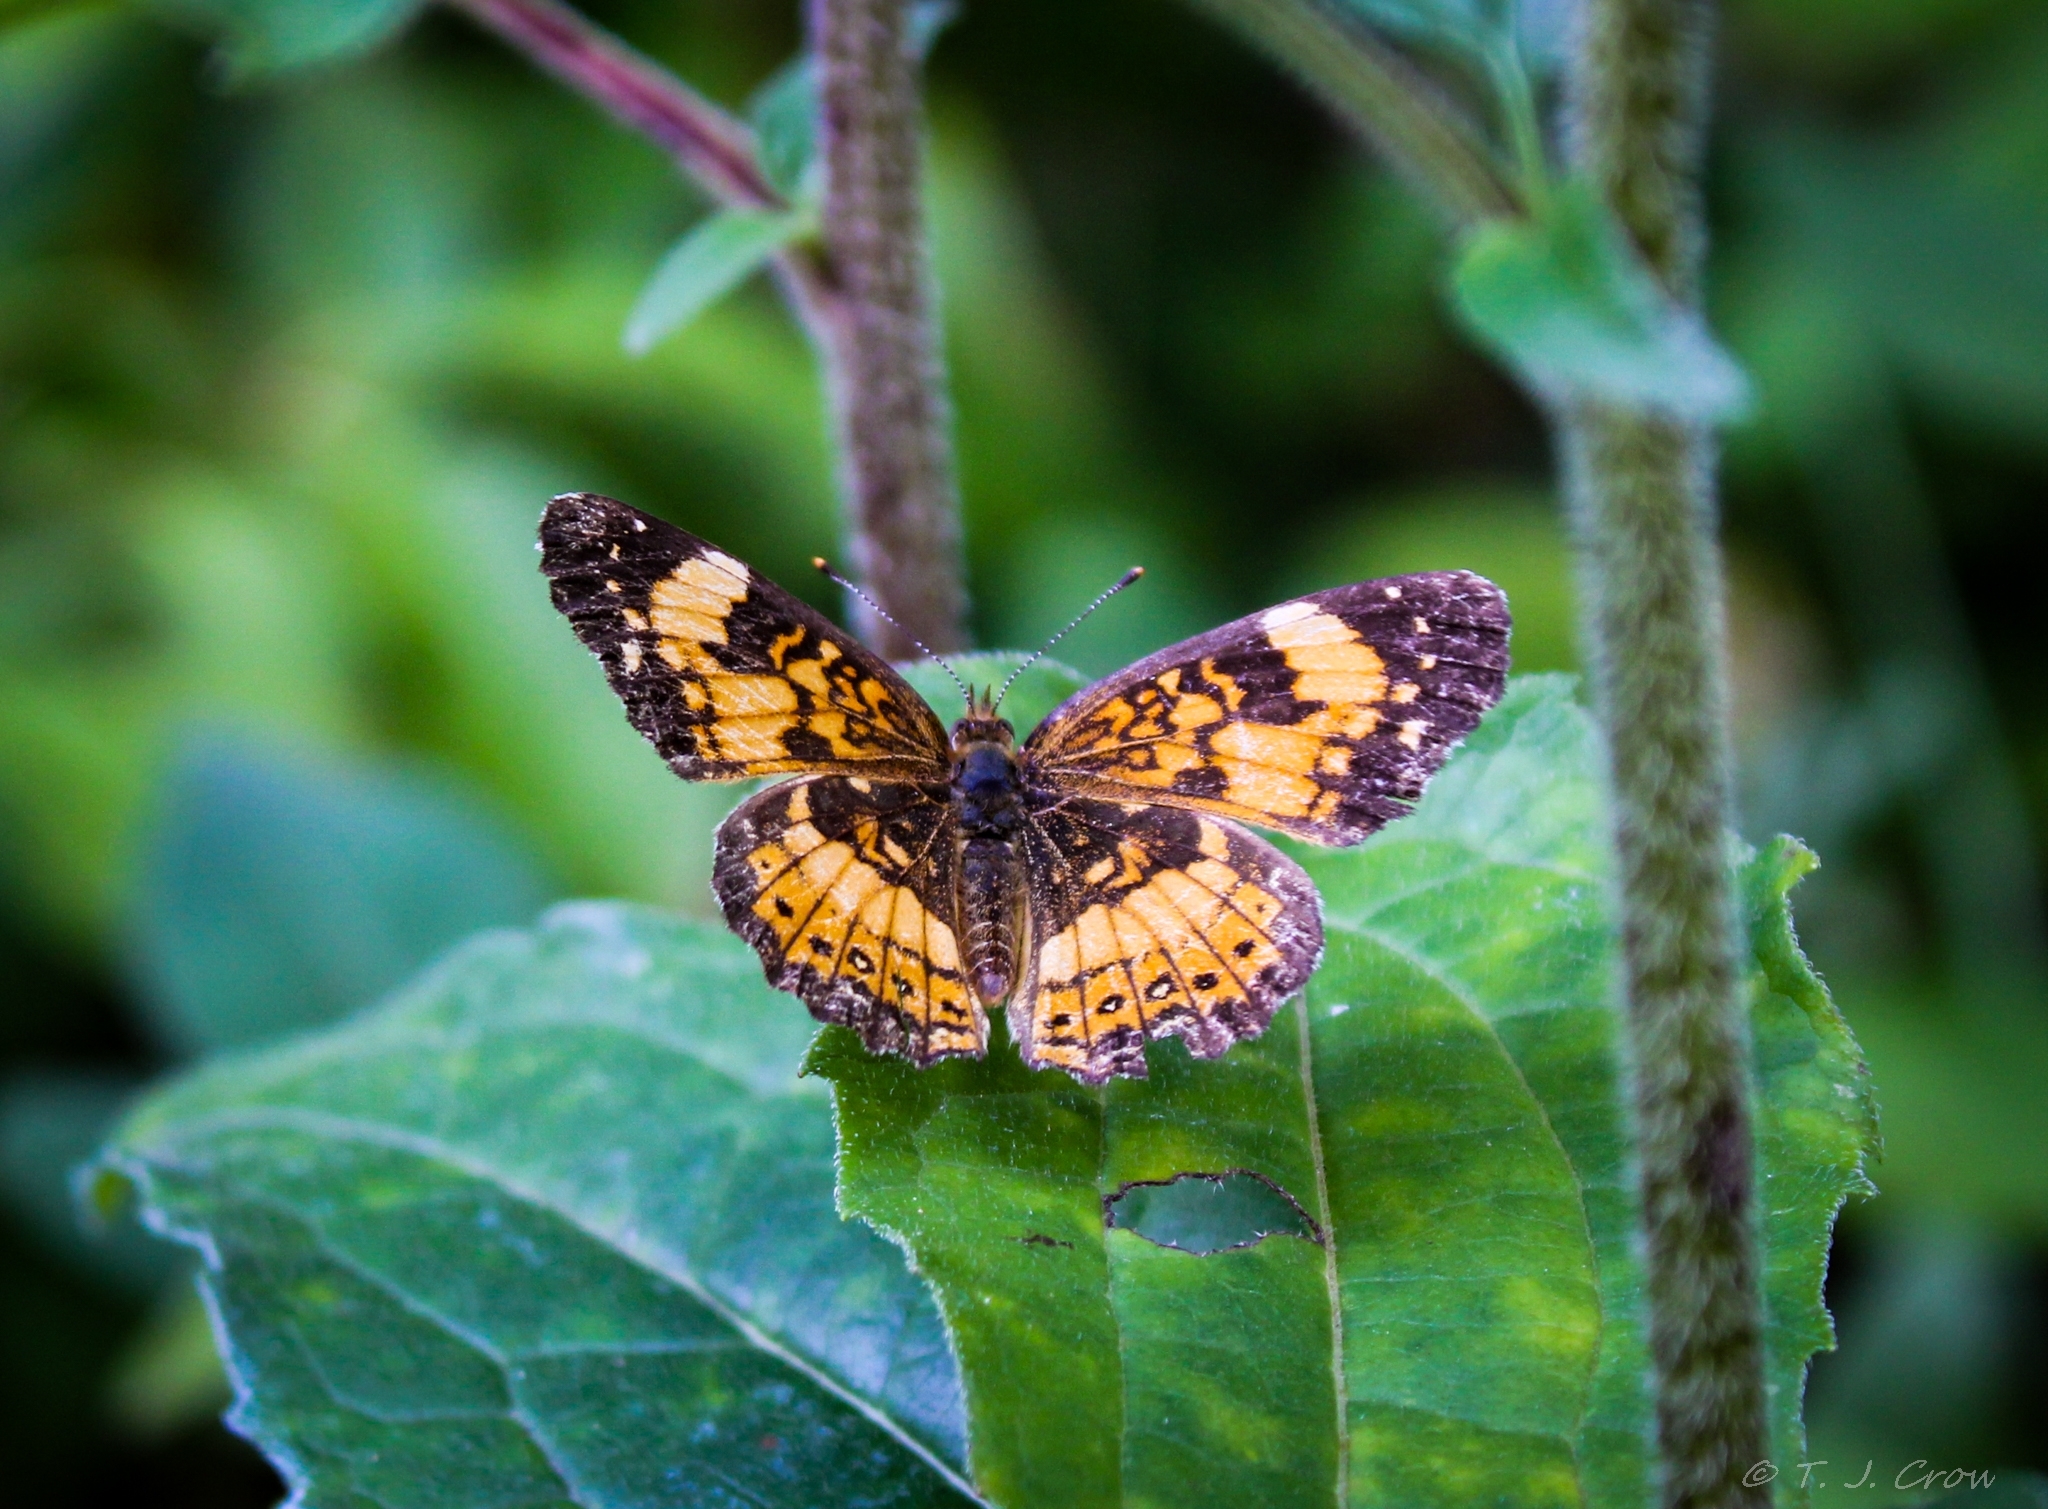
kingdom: Animalia
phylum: Arthropoda
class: Insecta
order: Lepidoptera
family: Nymphalidae
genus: Chlosyne
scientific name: Chlosyne nycteis
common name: Silvery checkerspot
